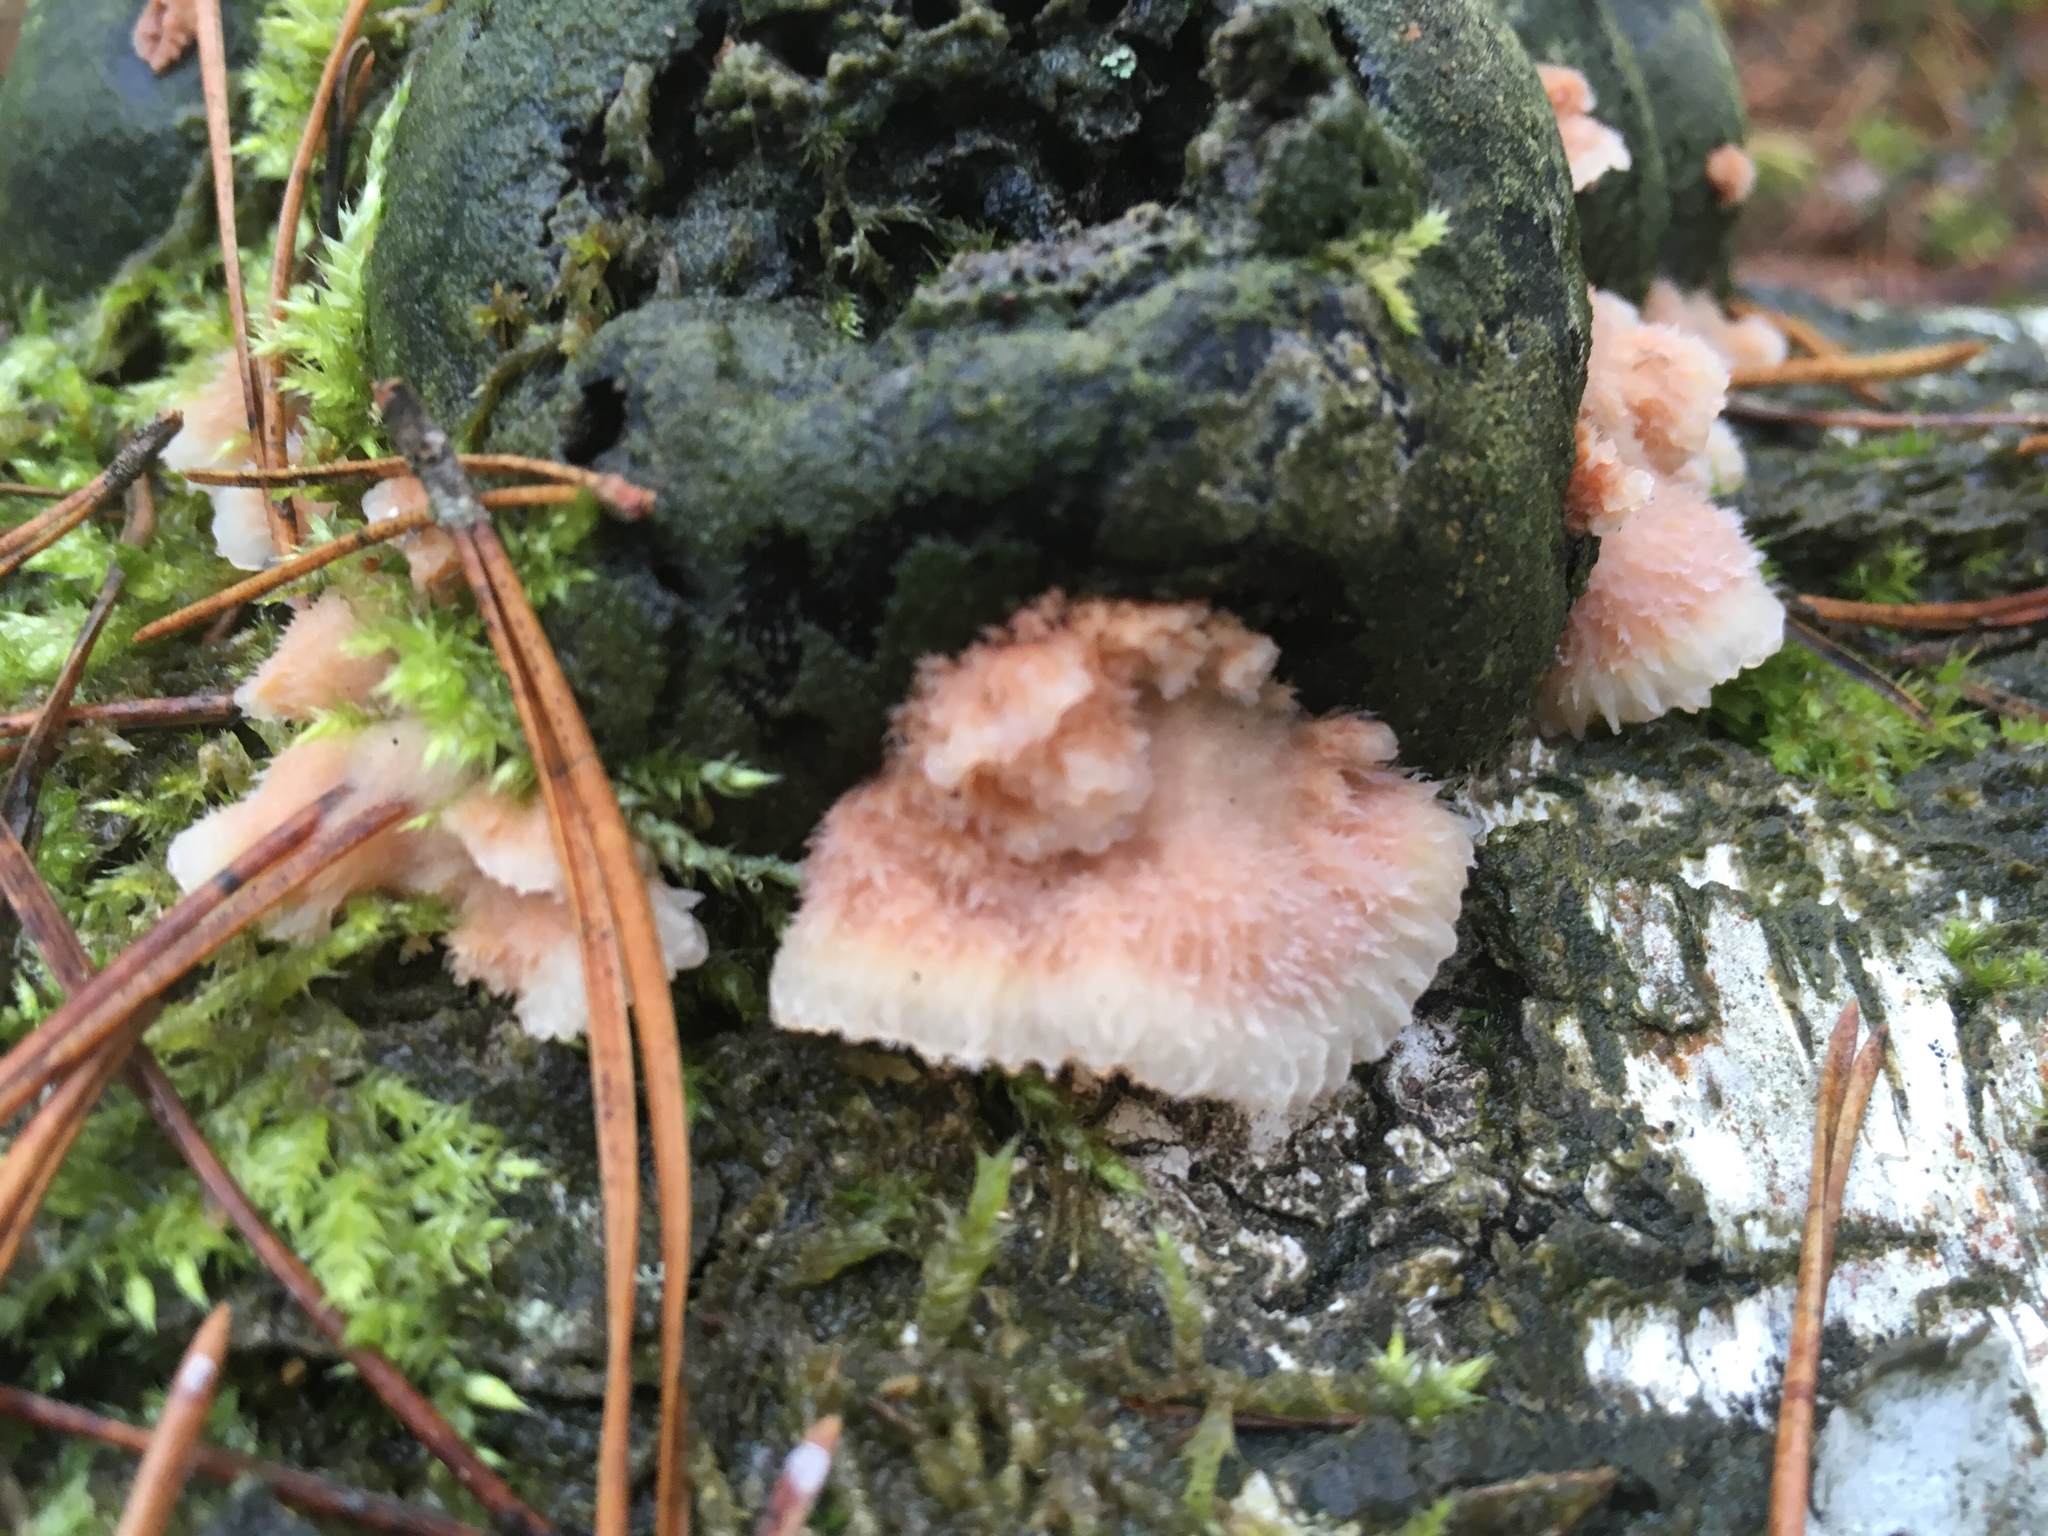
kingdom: Fungi
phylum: Basidiomycota
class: Agaricomycetes
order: Polyporales
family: Meruliaceae
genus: Phlebia
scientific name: Phlebia tremellosa
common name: Jelly rot
